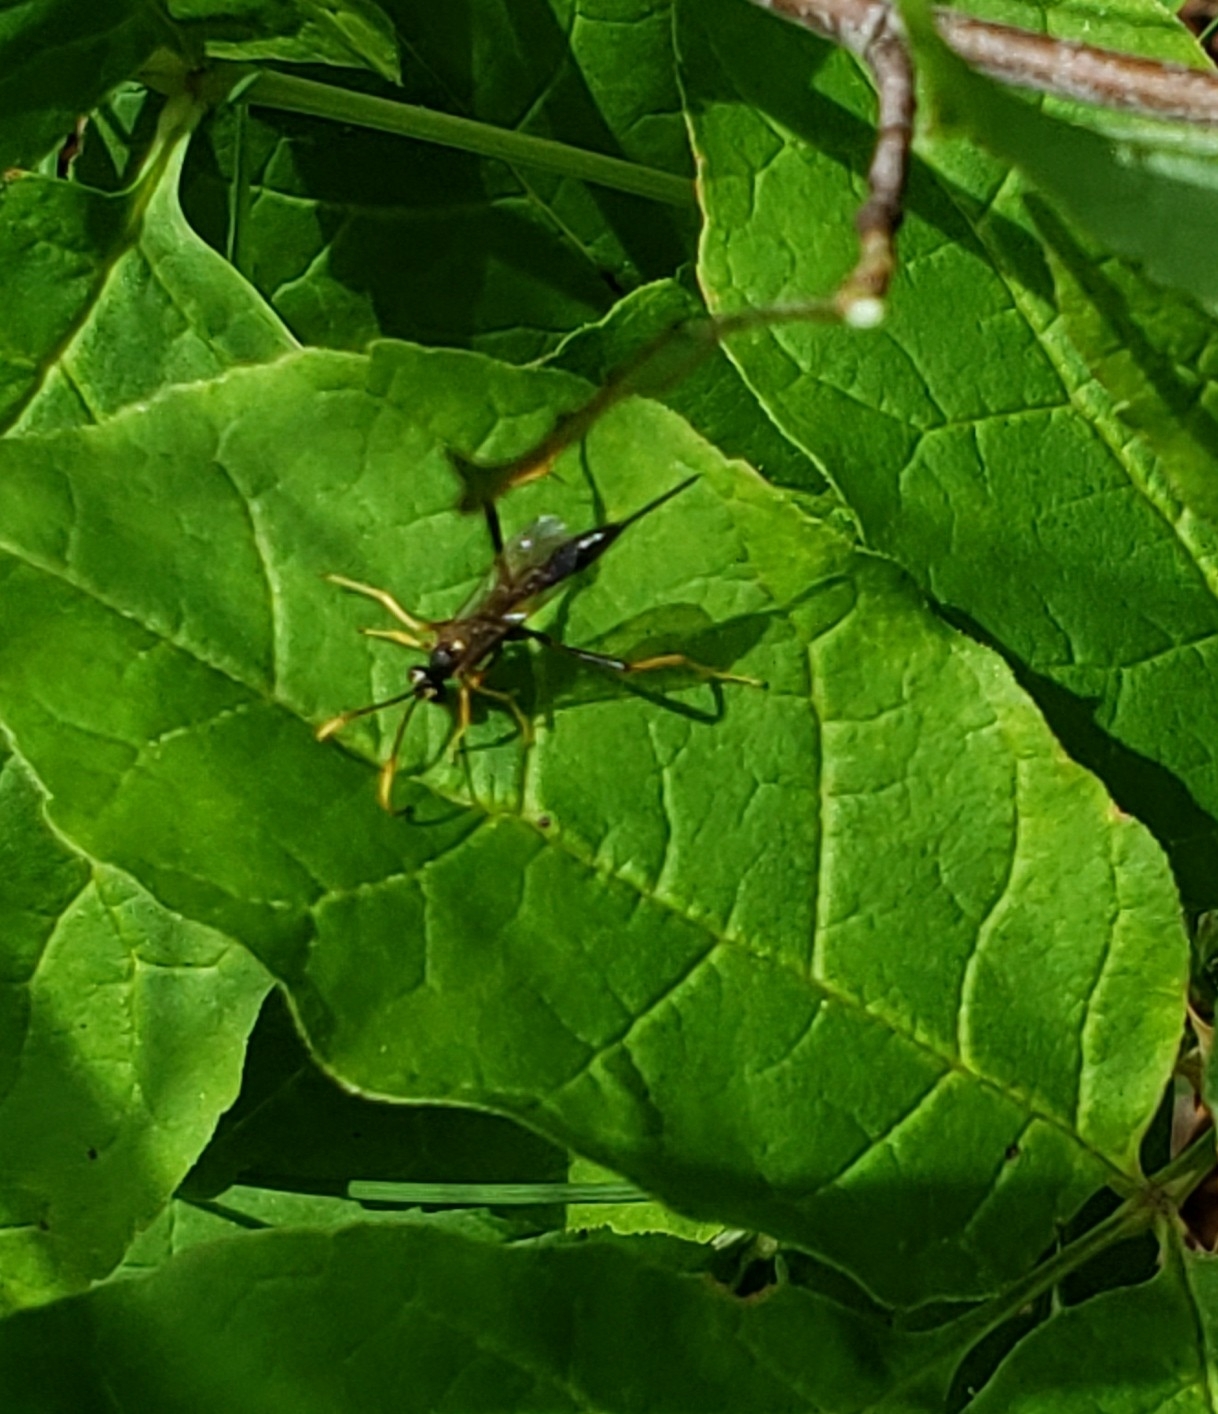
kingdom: Animalia
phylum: Arthropoda
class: Insecta
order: Hymenoptera
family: Ichneumonidae
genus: Acroricnus
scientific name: Acroricnus stylator
